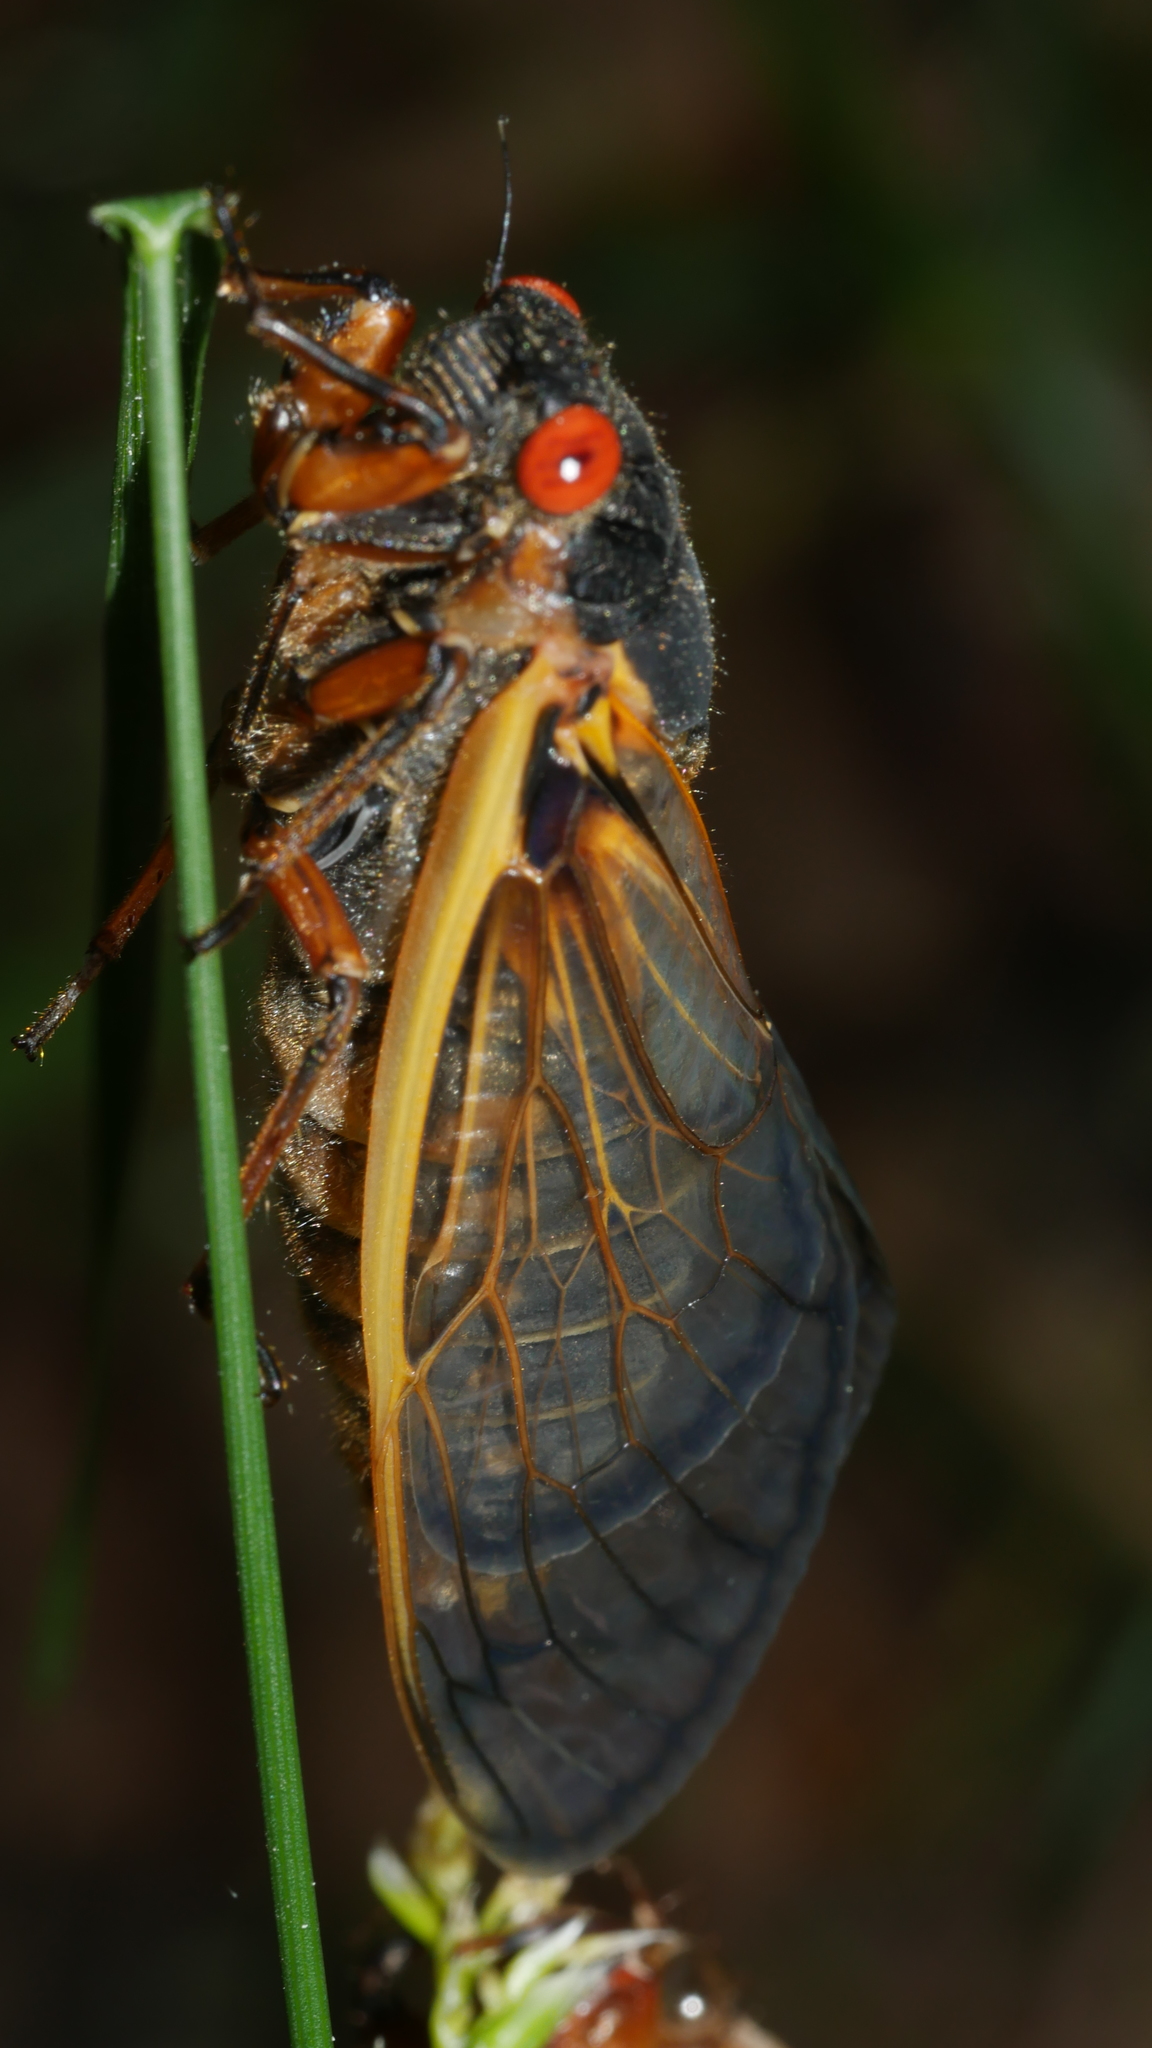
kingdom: Animalia
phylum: Arthropoda
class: Insecta
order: Hemiptera
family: Cicadidae
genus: Magicicada
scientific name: Magicicada septendecim
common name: Periodical cicada
